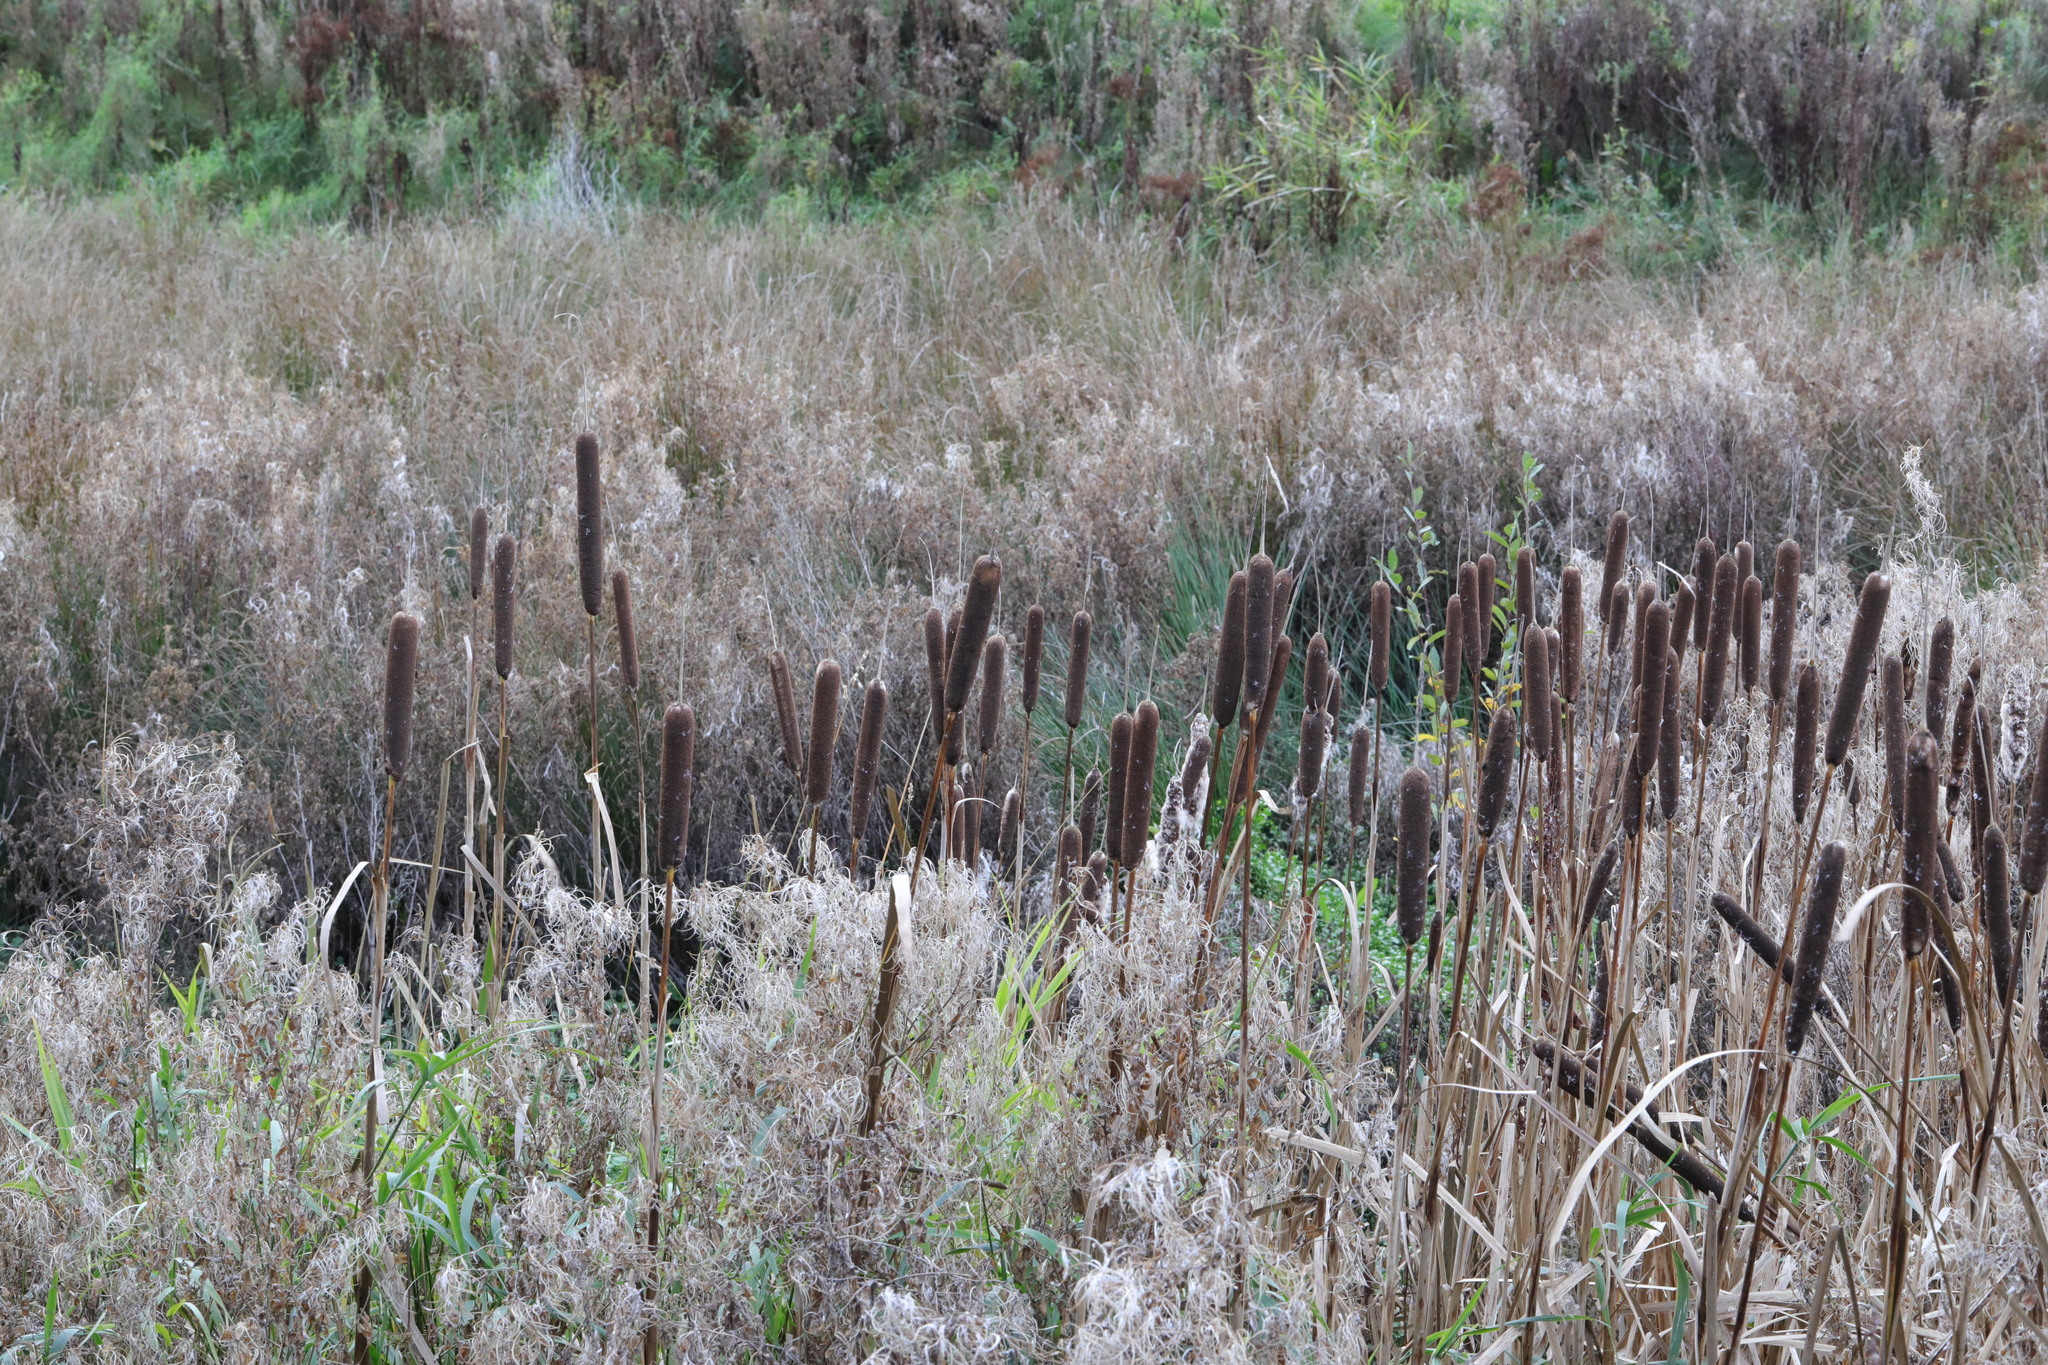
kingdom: Plantae
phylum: Tracheophyta
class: Liliopsida
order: Poales
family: Typhaceae
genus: Typha
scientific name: Typha latifolia
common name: Broadleaf cattail
